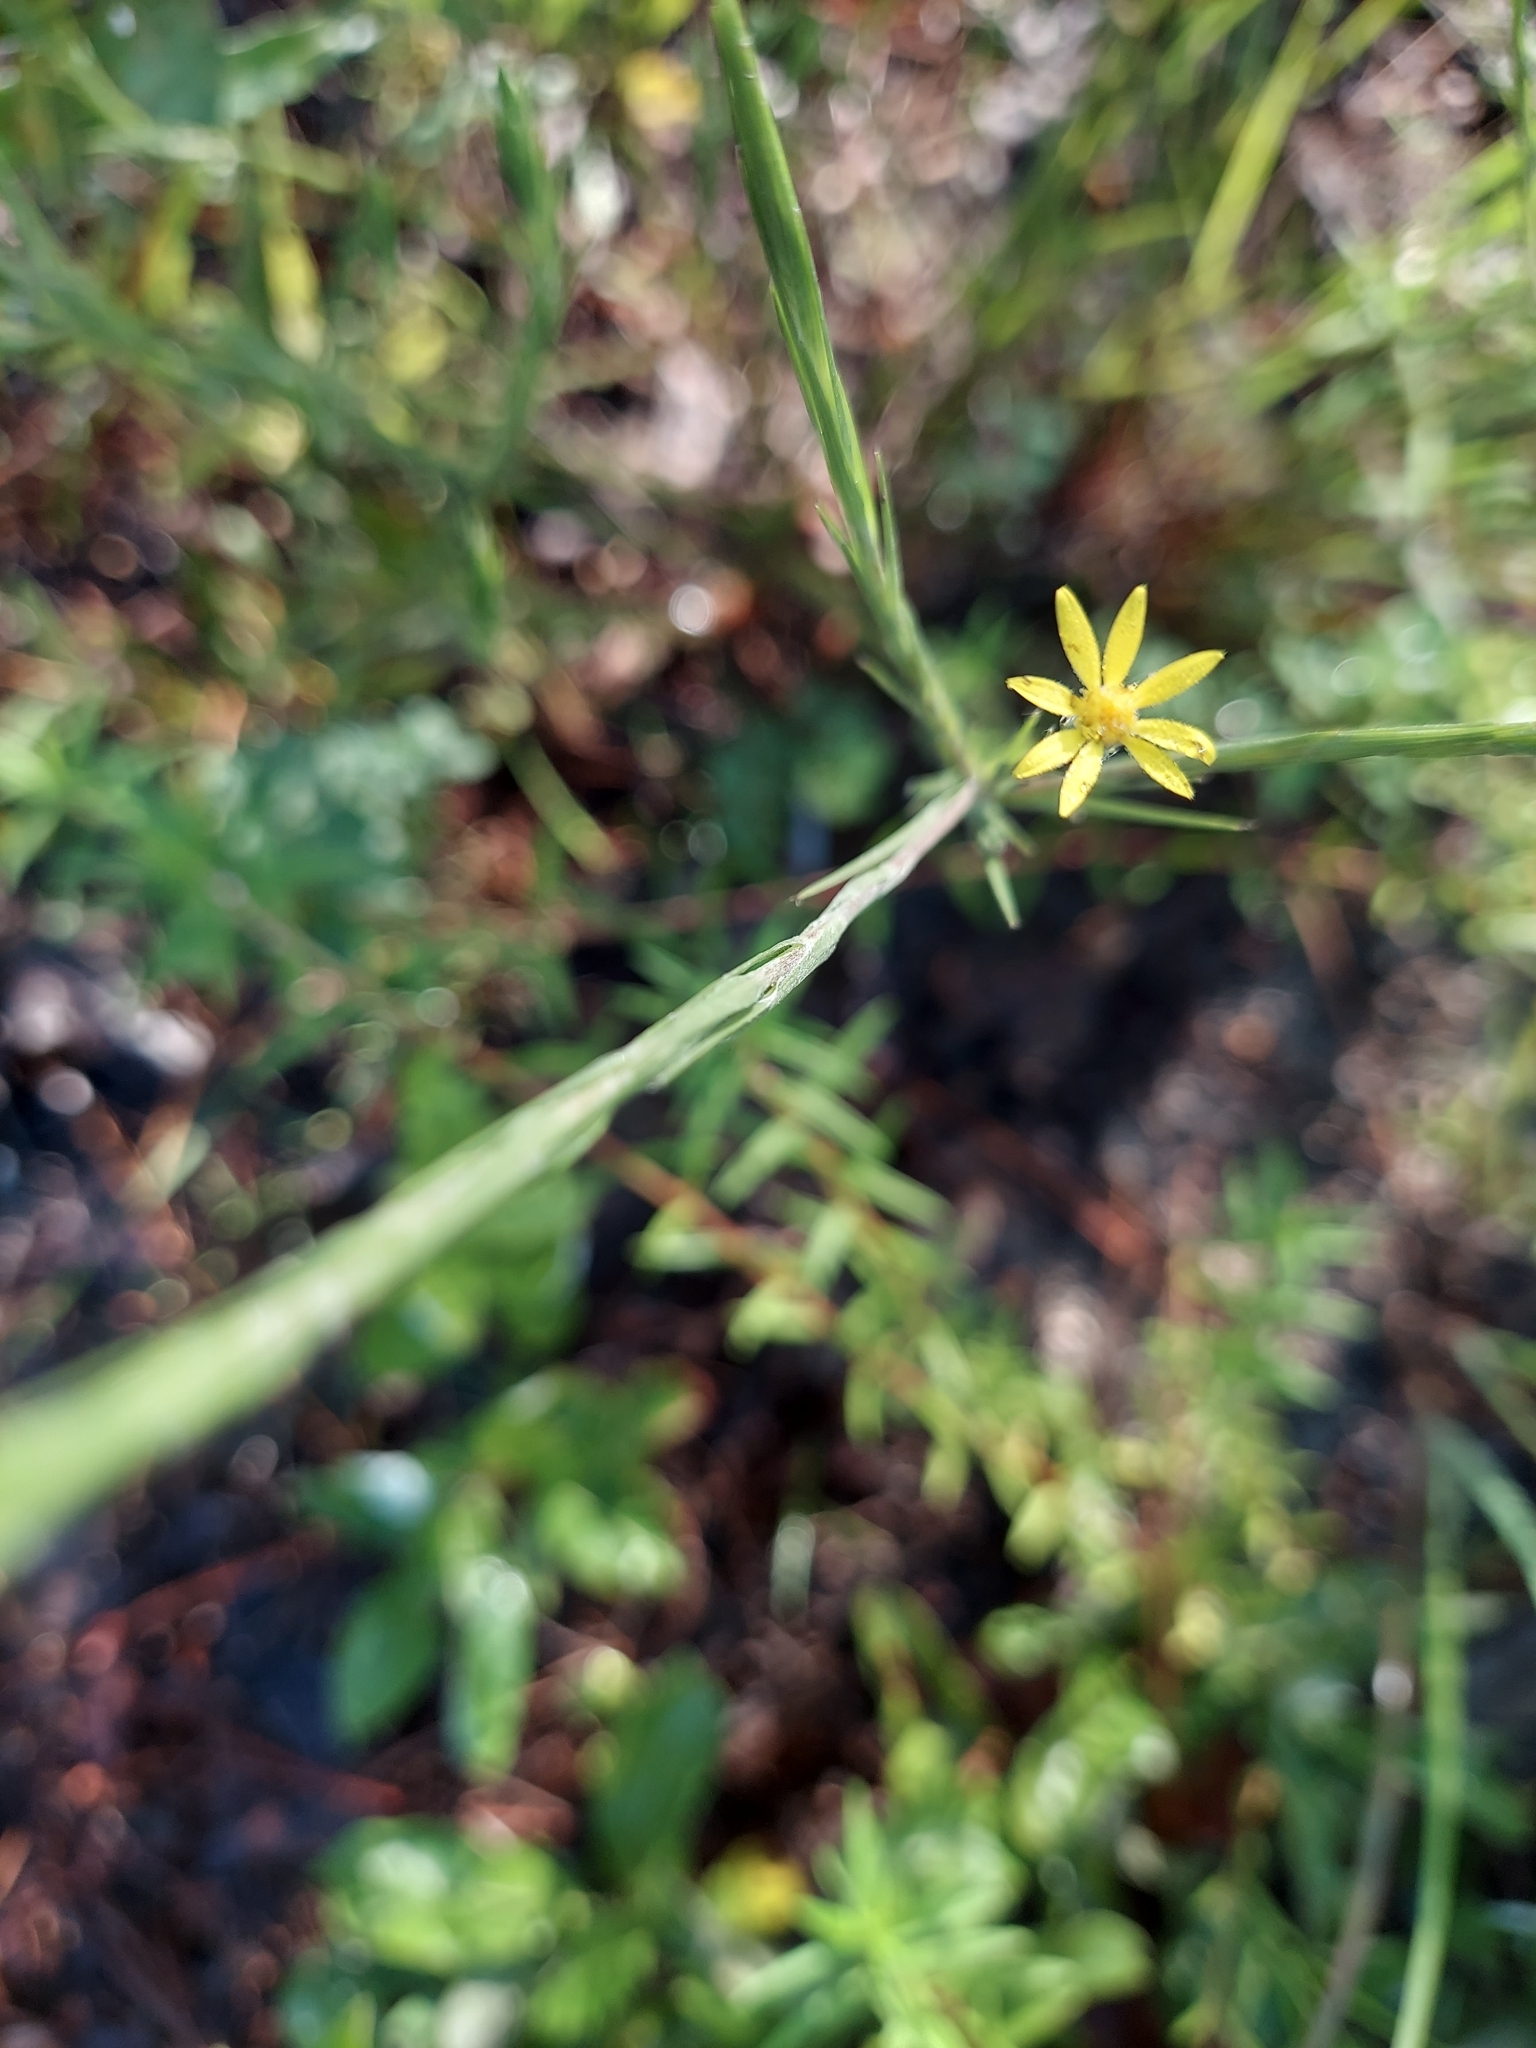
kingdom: Plantae
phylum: Tracheophyta
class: Magnoliopsida
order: Asterales
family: Asteraceae
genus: Pityopsis
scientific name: Pityopsis graminifolia
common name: Grass-leaf golden-aster
